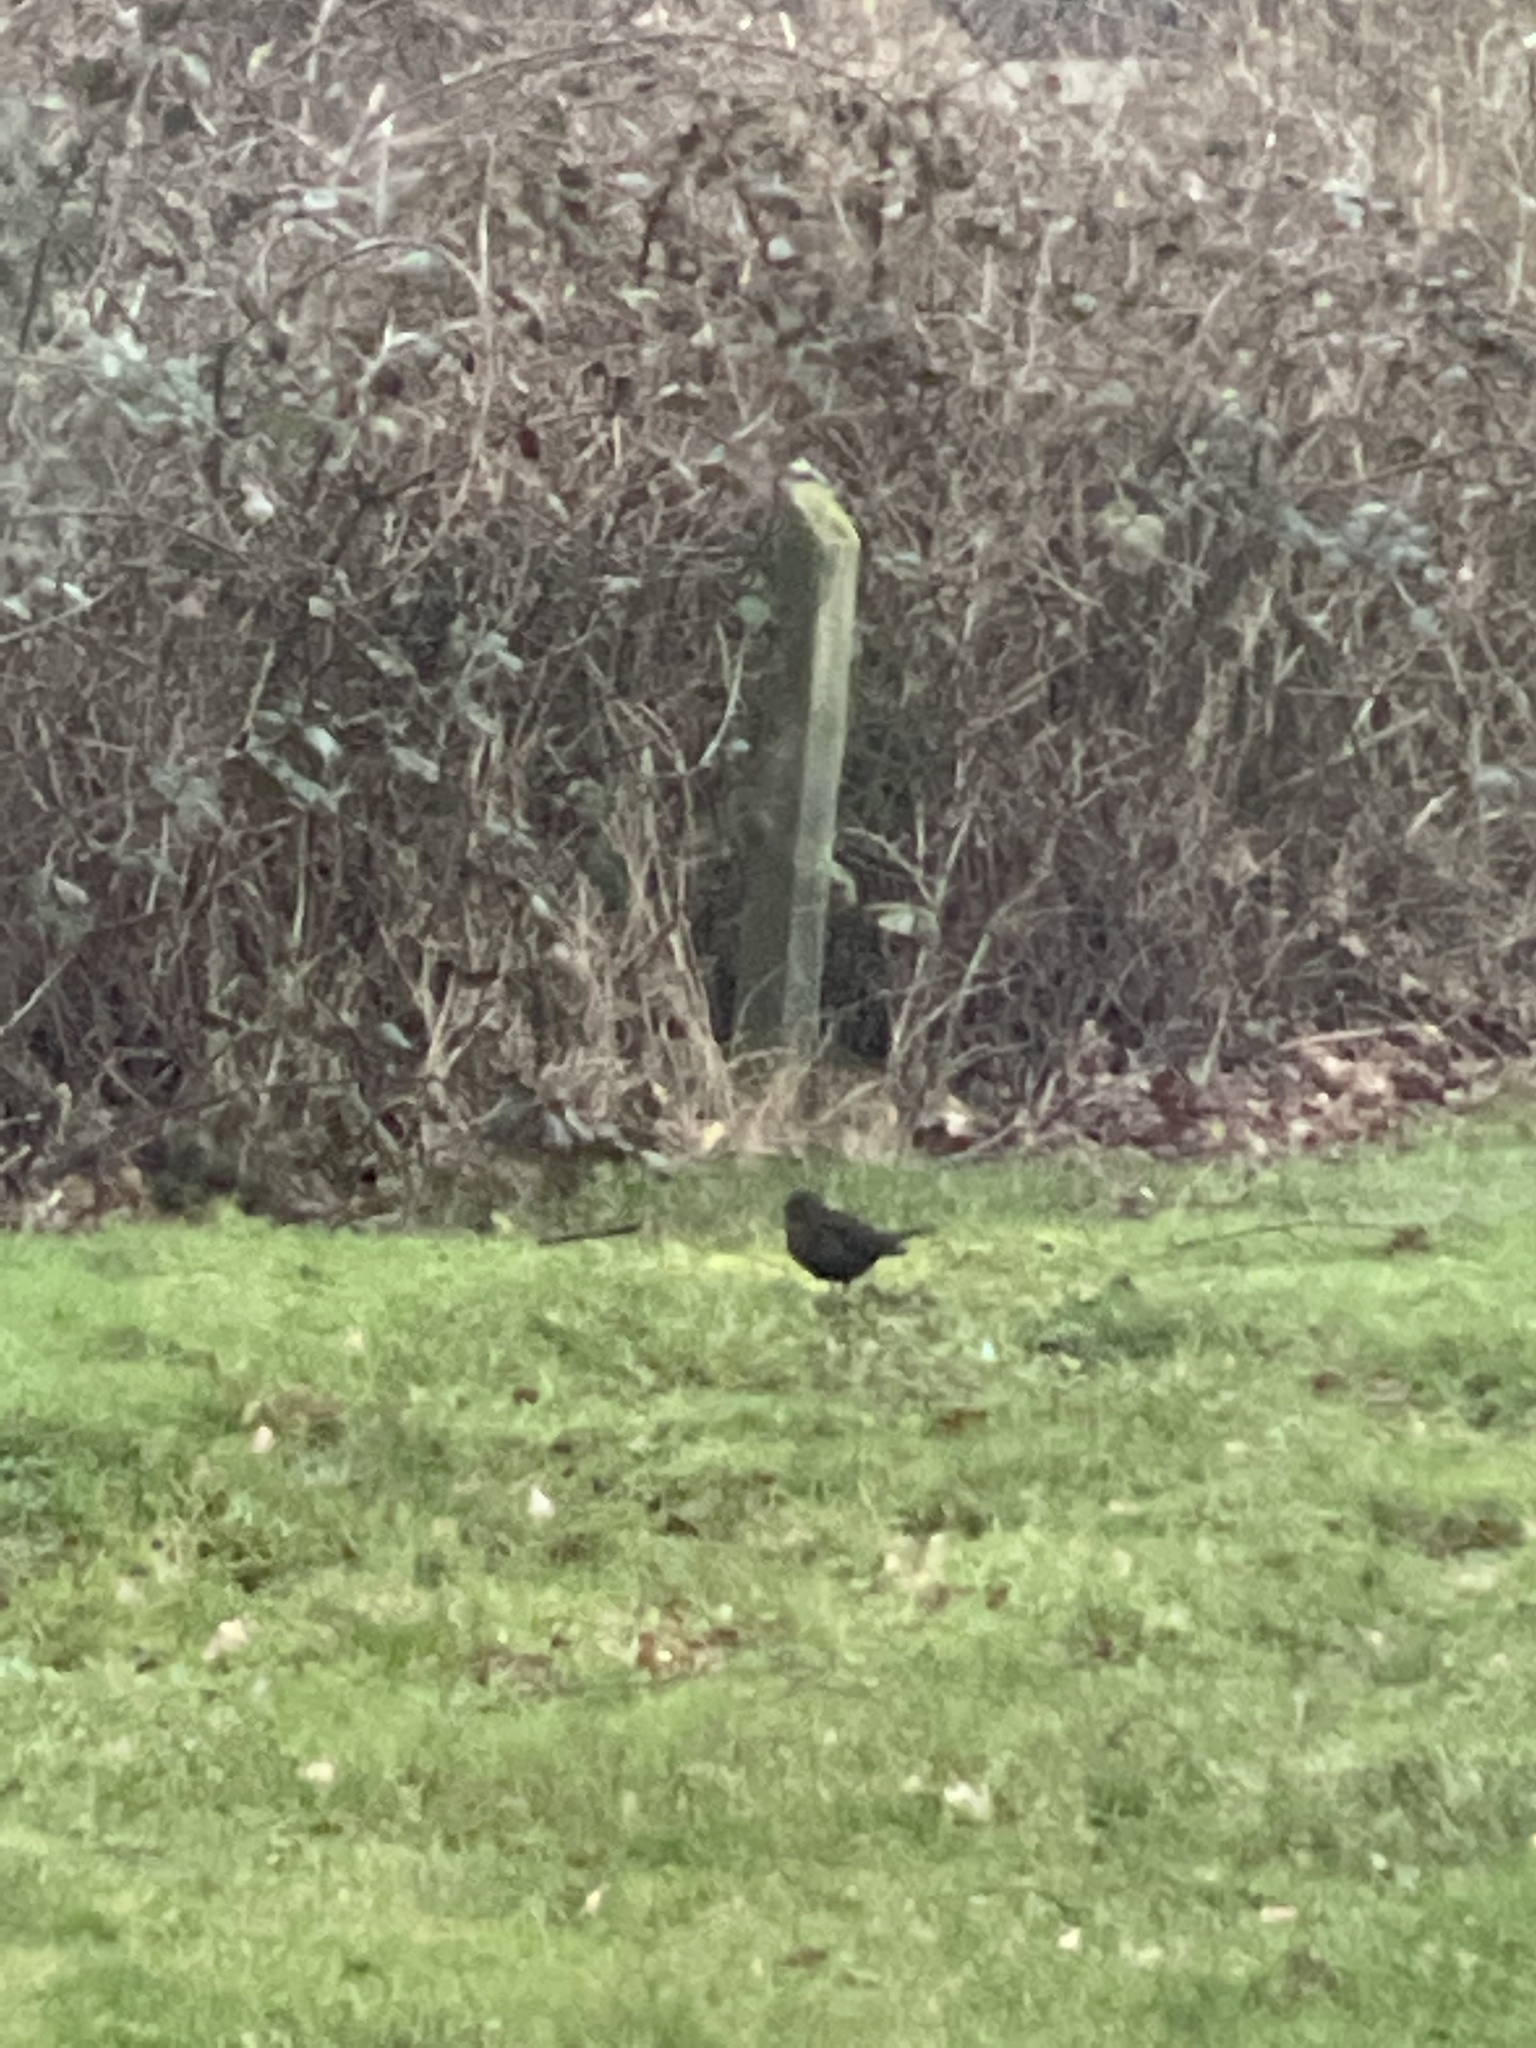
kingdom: Animalia
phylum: Chordata
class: Aves
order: Passeriformes
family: Turdidae
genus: Turdus
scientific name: Turdus merula
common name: Common blackbird
